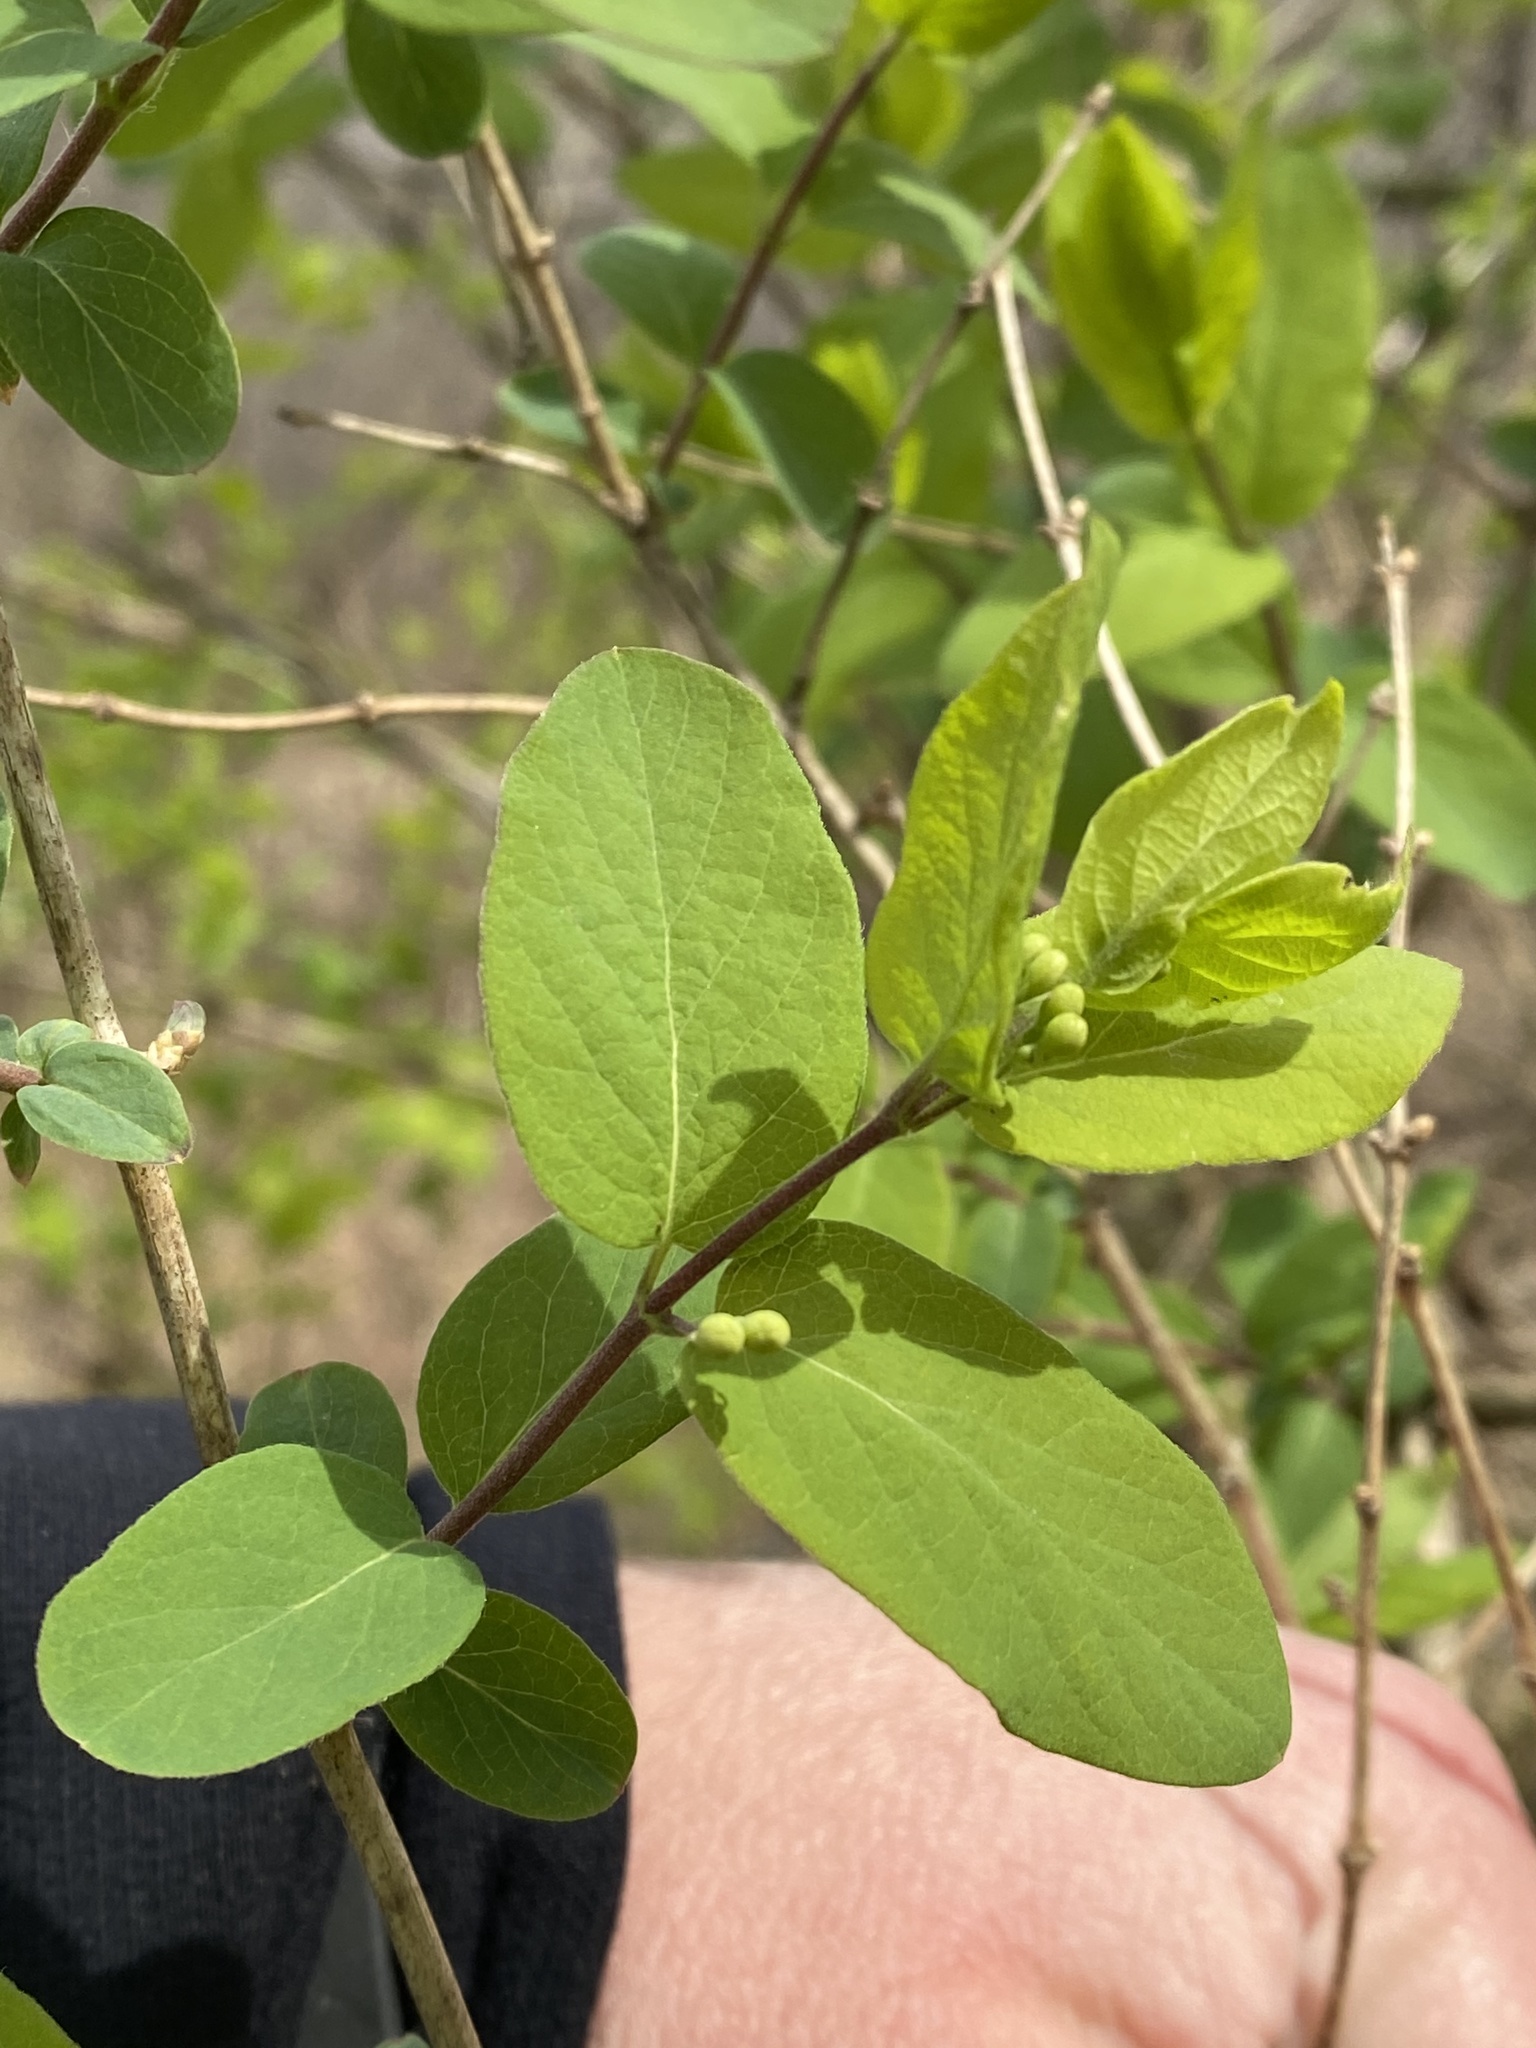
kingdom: Plantae
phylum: Tracheophyta
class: Magnoliopsida
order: Dipsacales
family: Caprifoliaceae
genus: Lonicera
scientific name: Lonicera morrowii
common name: Morrow's honeysuckle
